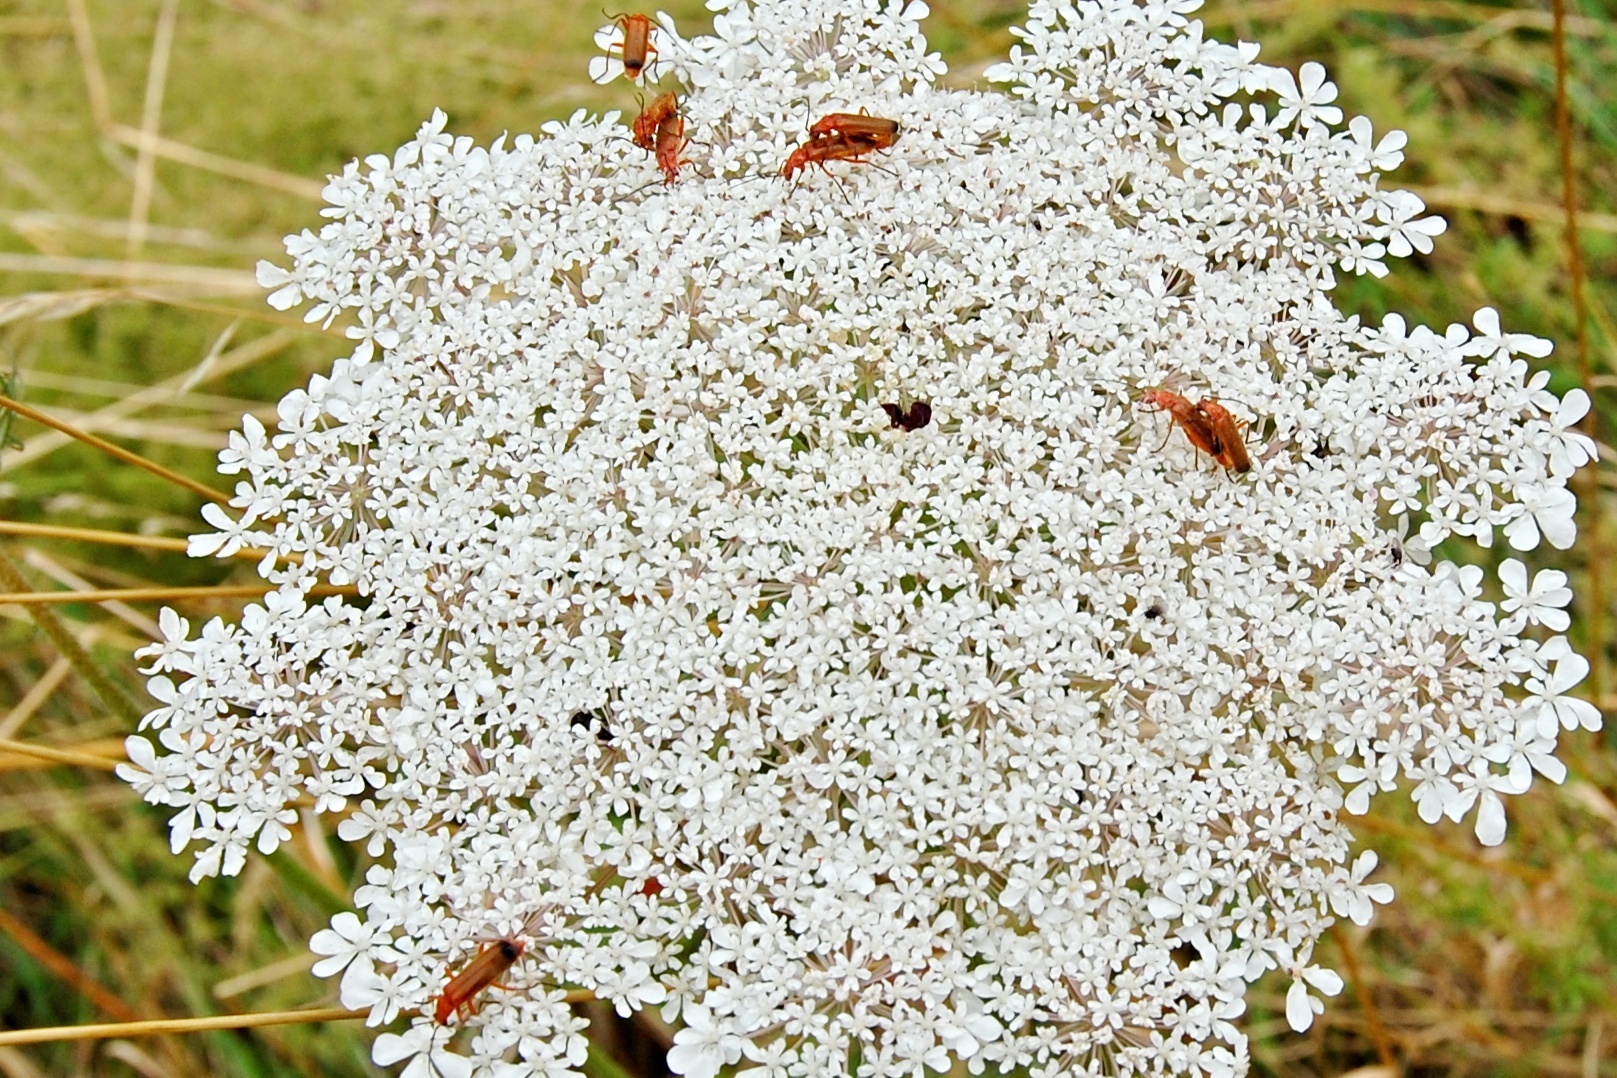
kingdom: Animalia
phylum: Arthropoda
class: Insecta
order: Coleoptera
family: Cantharidae
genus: Rhagonycha
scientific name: Rhagonycha fulva
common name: Common red soldier beetle
